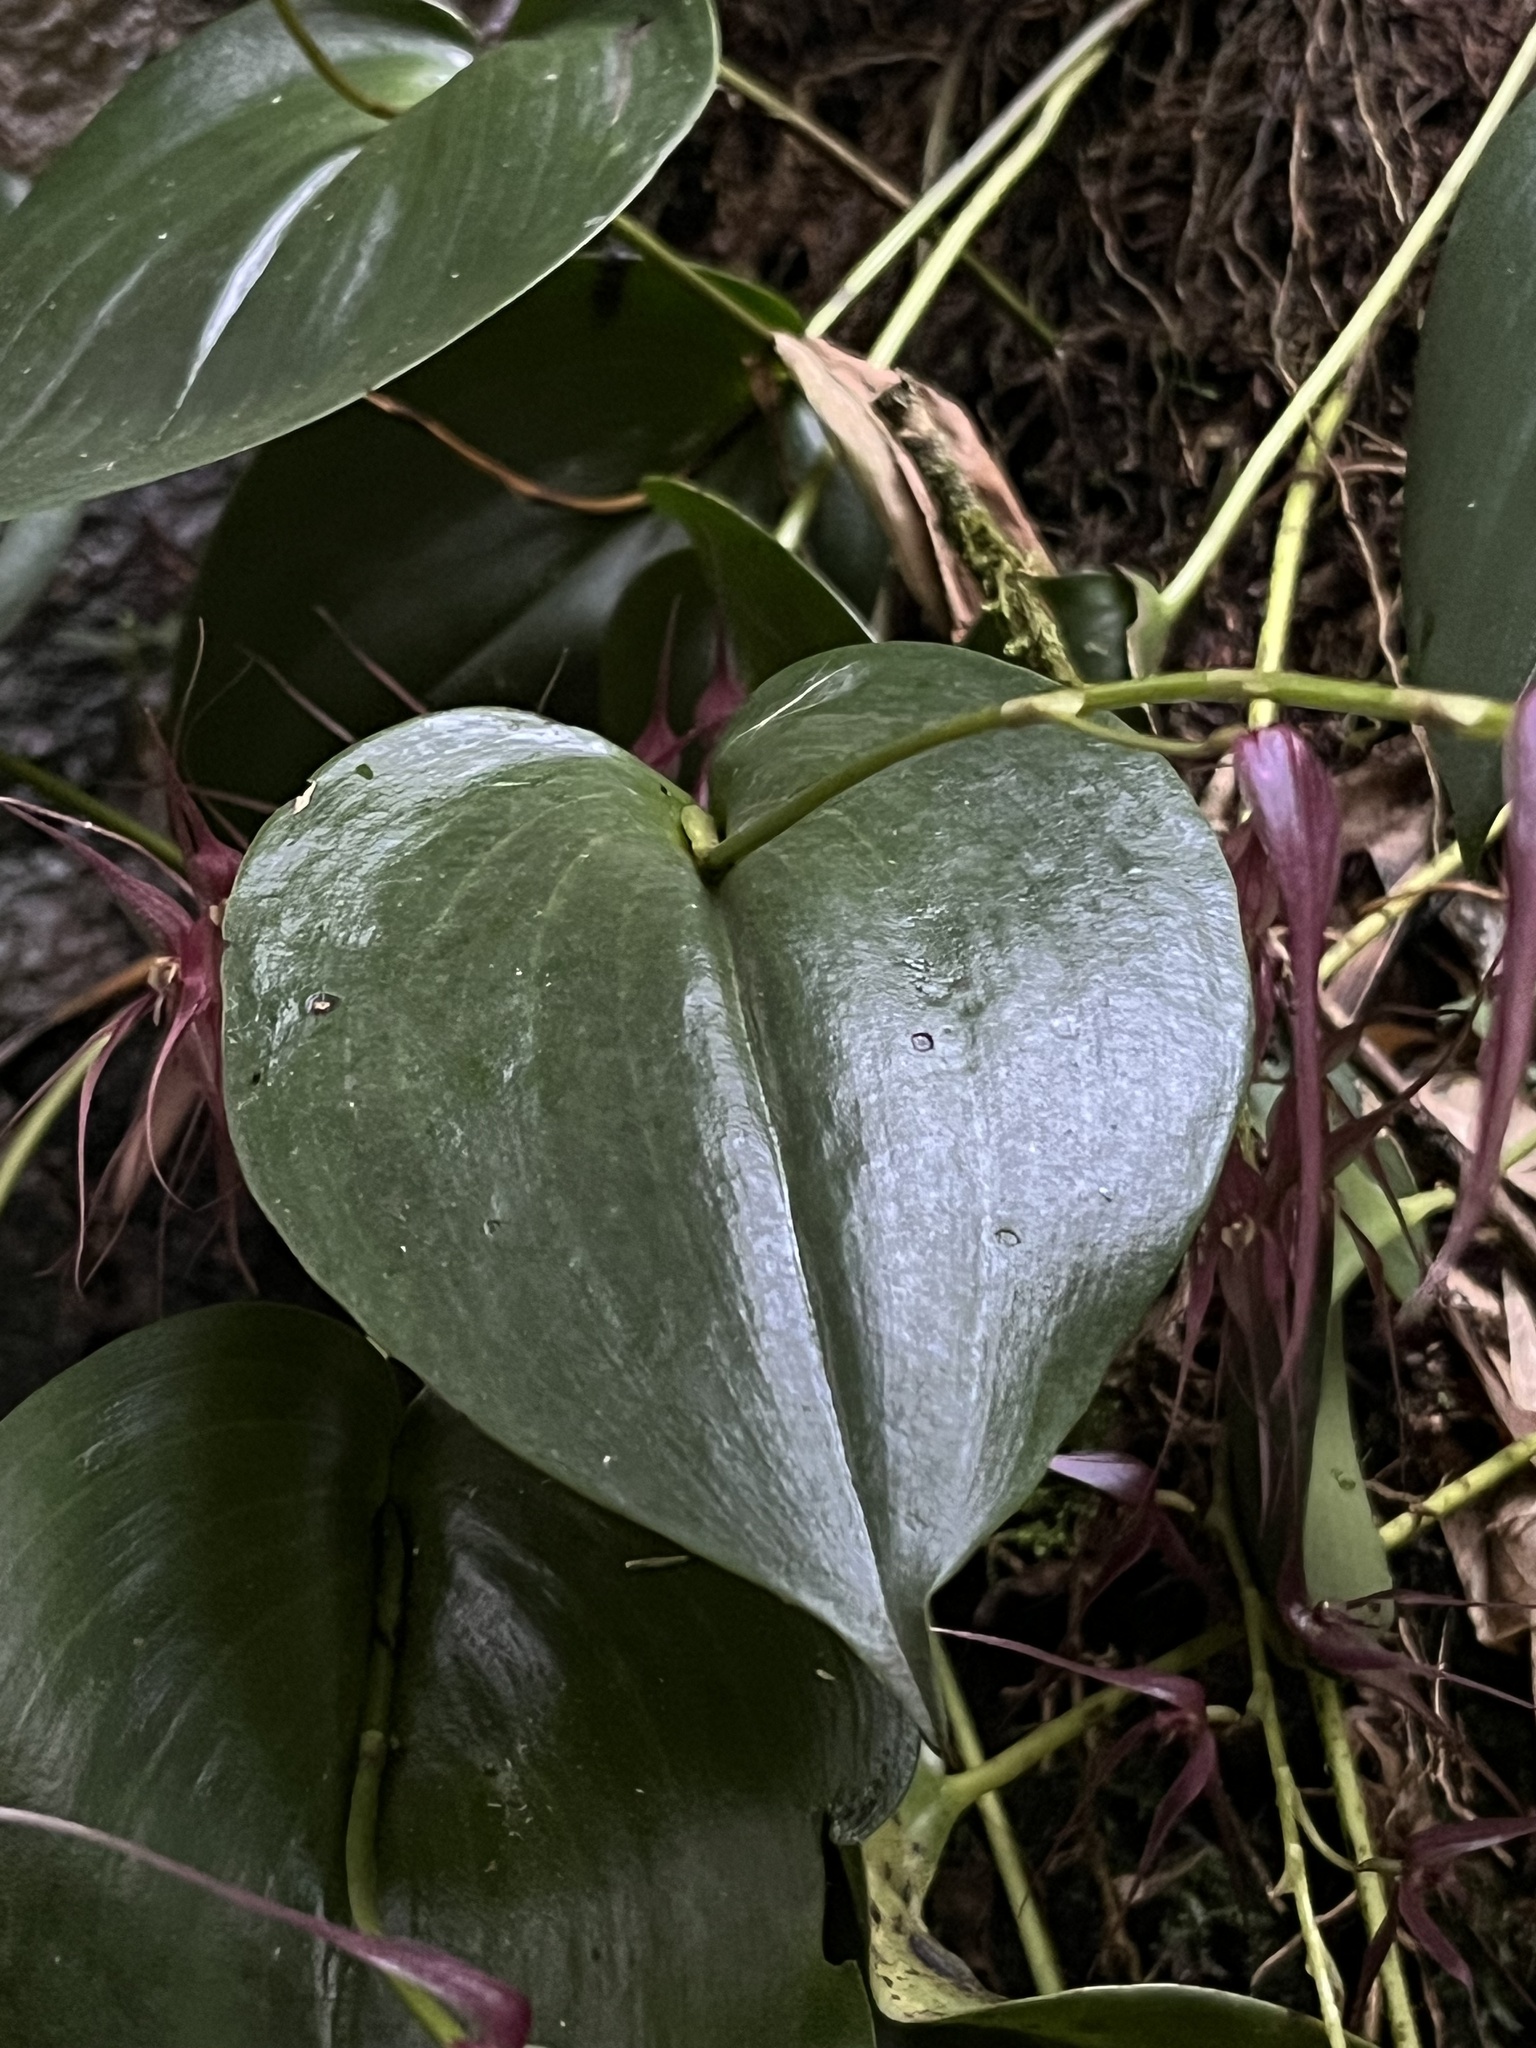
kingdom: Plantae
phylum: Tracheophyta
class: Liliopsida
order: Asparagales
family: Orchidaceae
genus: Pleurothallis
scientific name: Pleurothallis phalangifera
